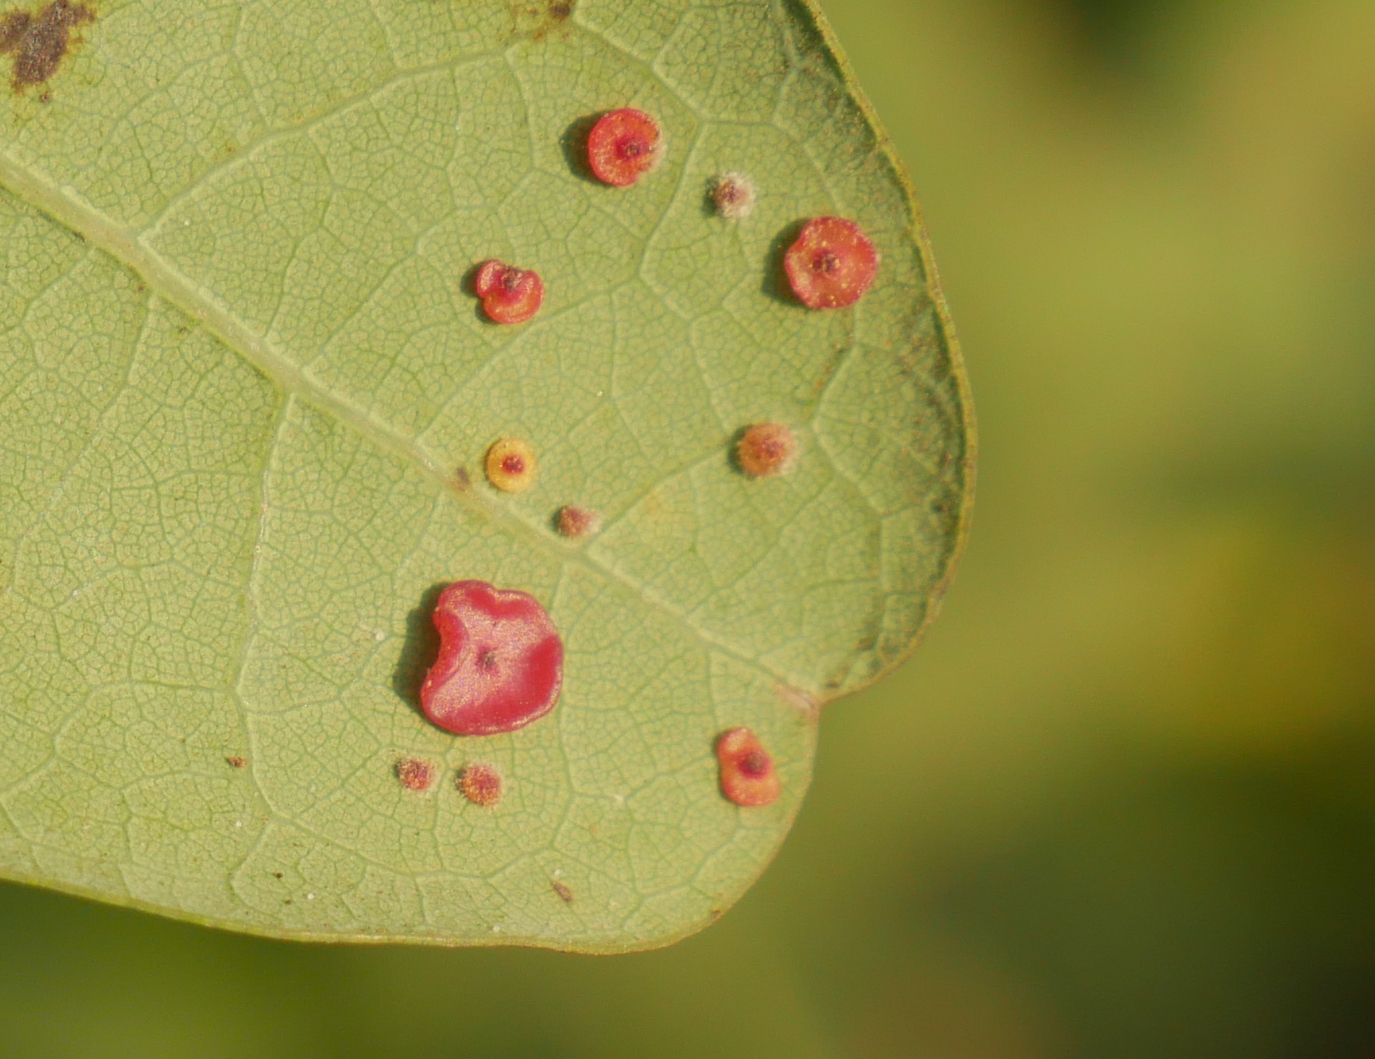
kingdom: Animalia
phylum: Arthropoda
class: Insecta
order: Hymenoptera
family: Cynipidae
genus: Neuroterus
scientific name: Neuroterus albipes
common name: Smooth spangle gall
